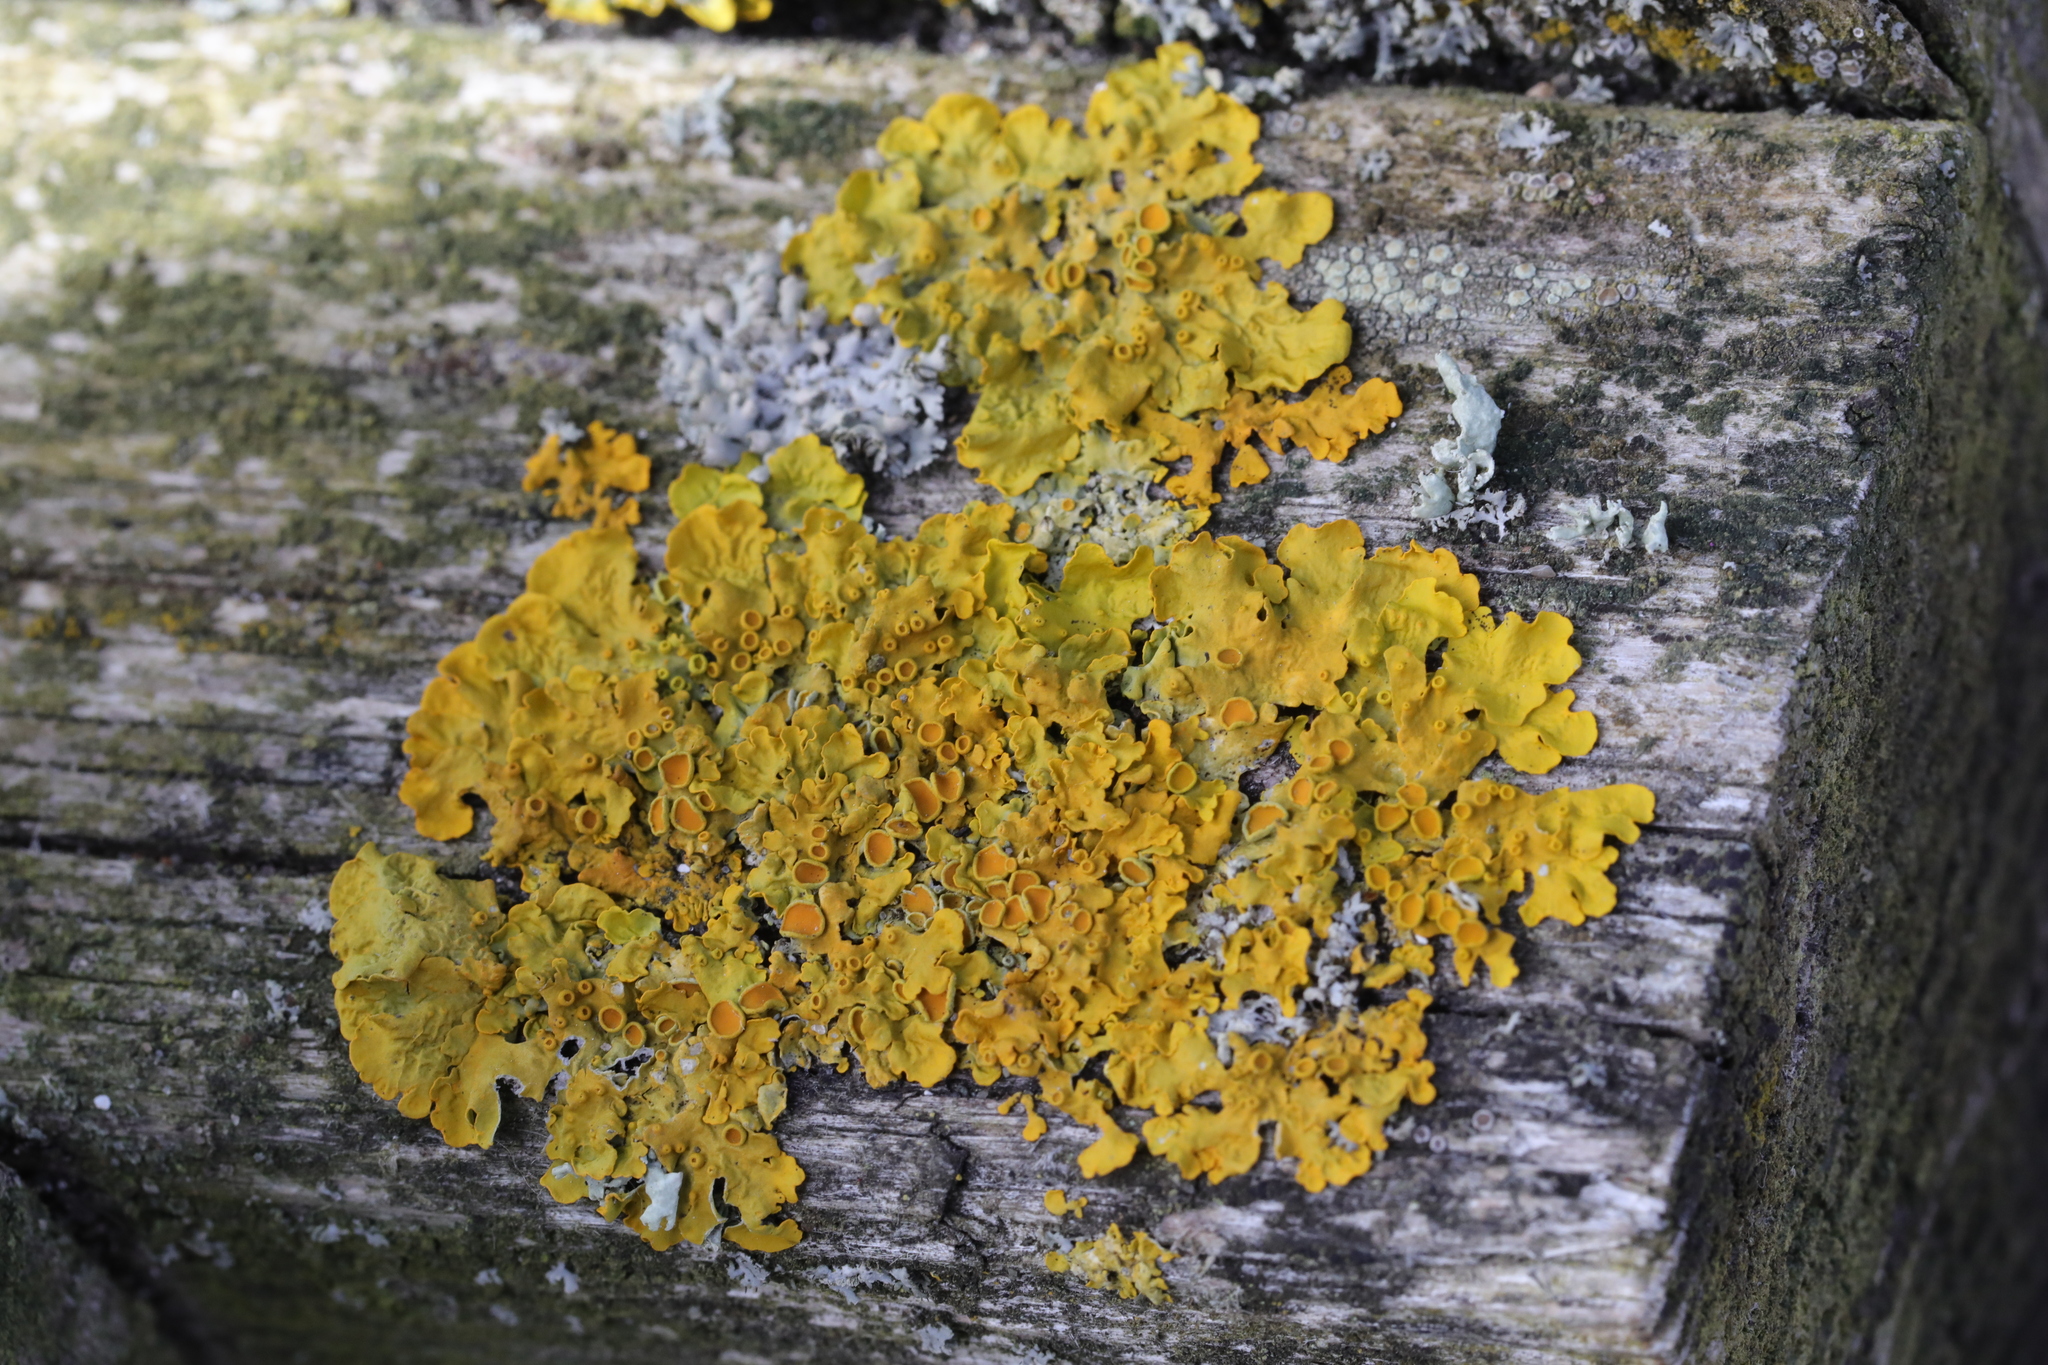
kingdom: Fungi
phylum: Ascomycota
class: Lecanoromycetes
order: Teloschistales
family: Teloschistaceae
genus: Xanthoria
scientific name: Xanthoria parietina
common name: Common orange lichen
